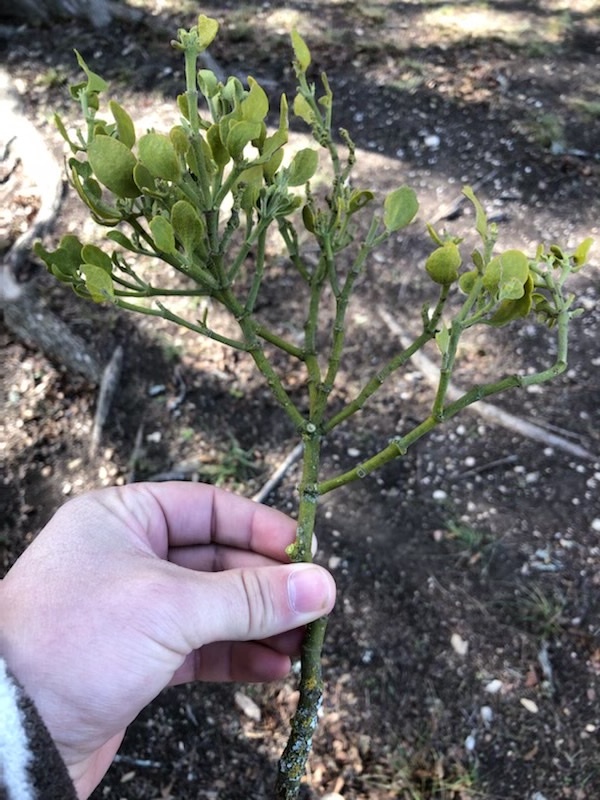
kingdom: Plantae
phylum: Tracheophyta
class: Magnoliopsida
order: Santalales
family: Viscaceae
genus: Phoradendron
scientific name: Phoradendron leucarpum
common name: Pacific mistletoe
